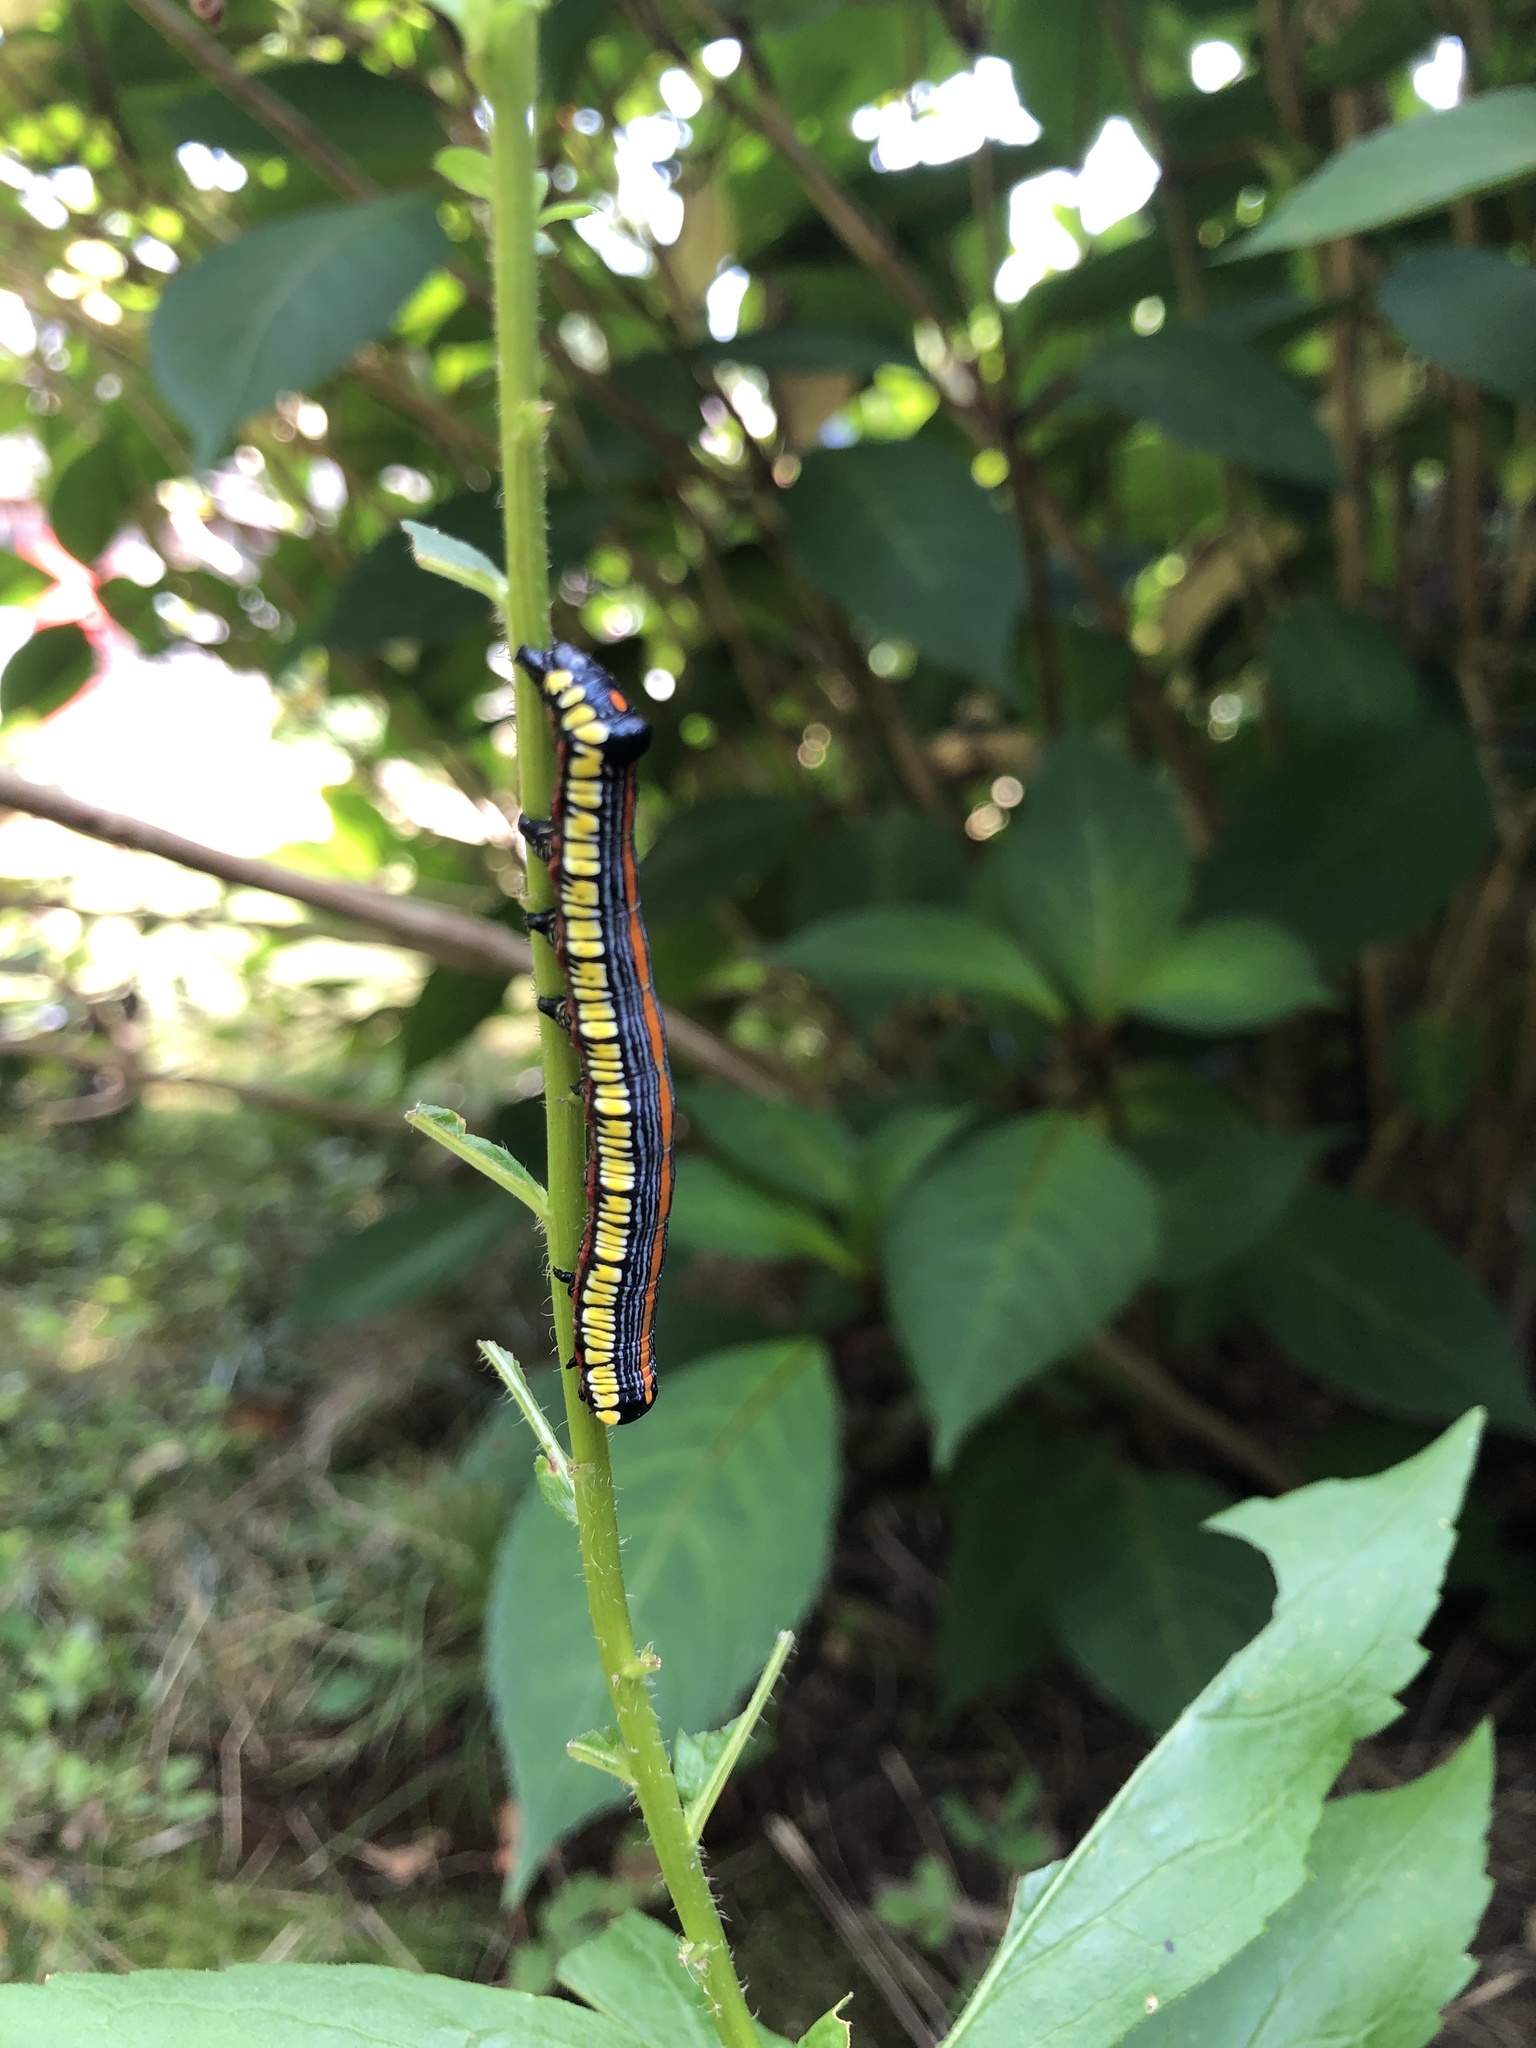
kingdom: Animalia
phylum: Arthropoda
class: Insecta
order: Lepidoptera
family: Noctuidae
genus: Cucullia
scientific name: Cucullia convexipennis
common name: Brown-hooded owlet
